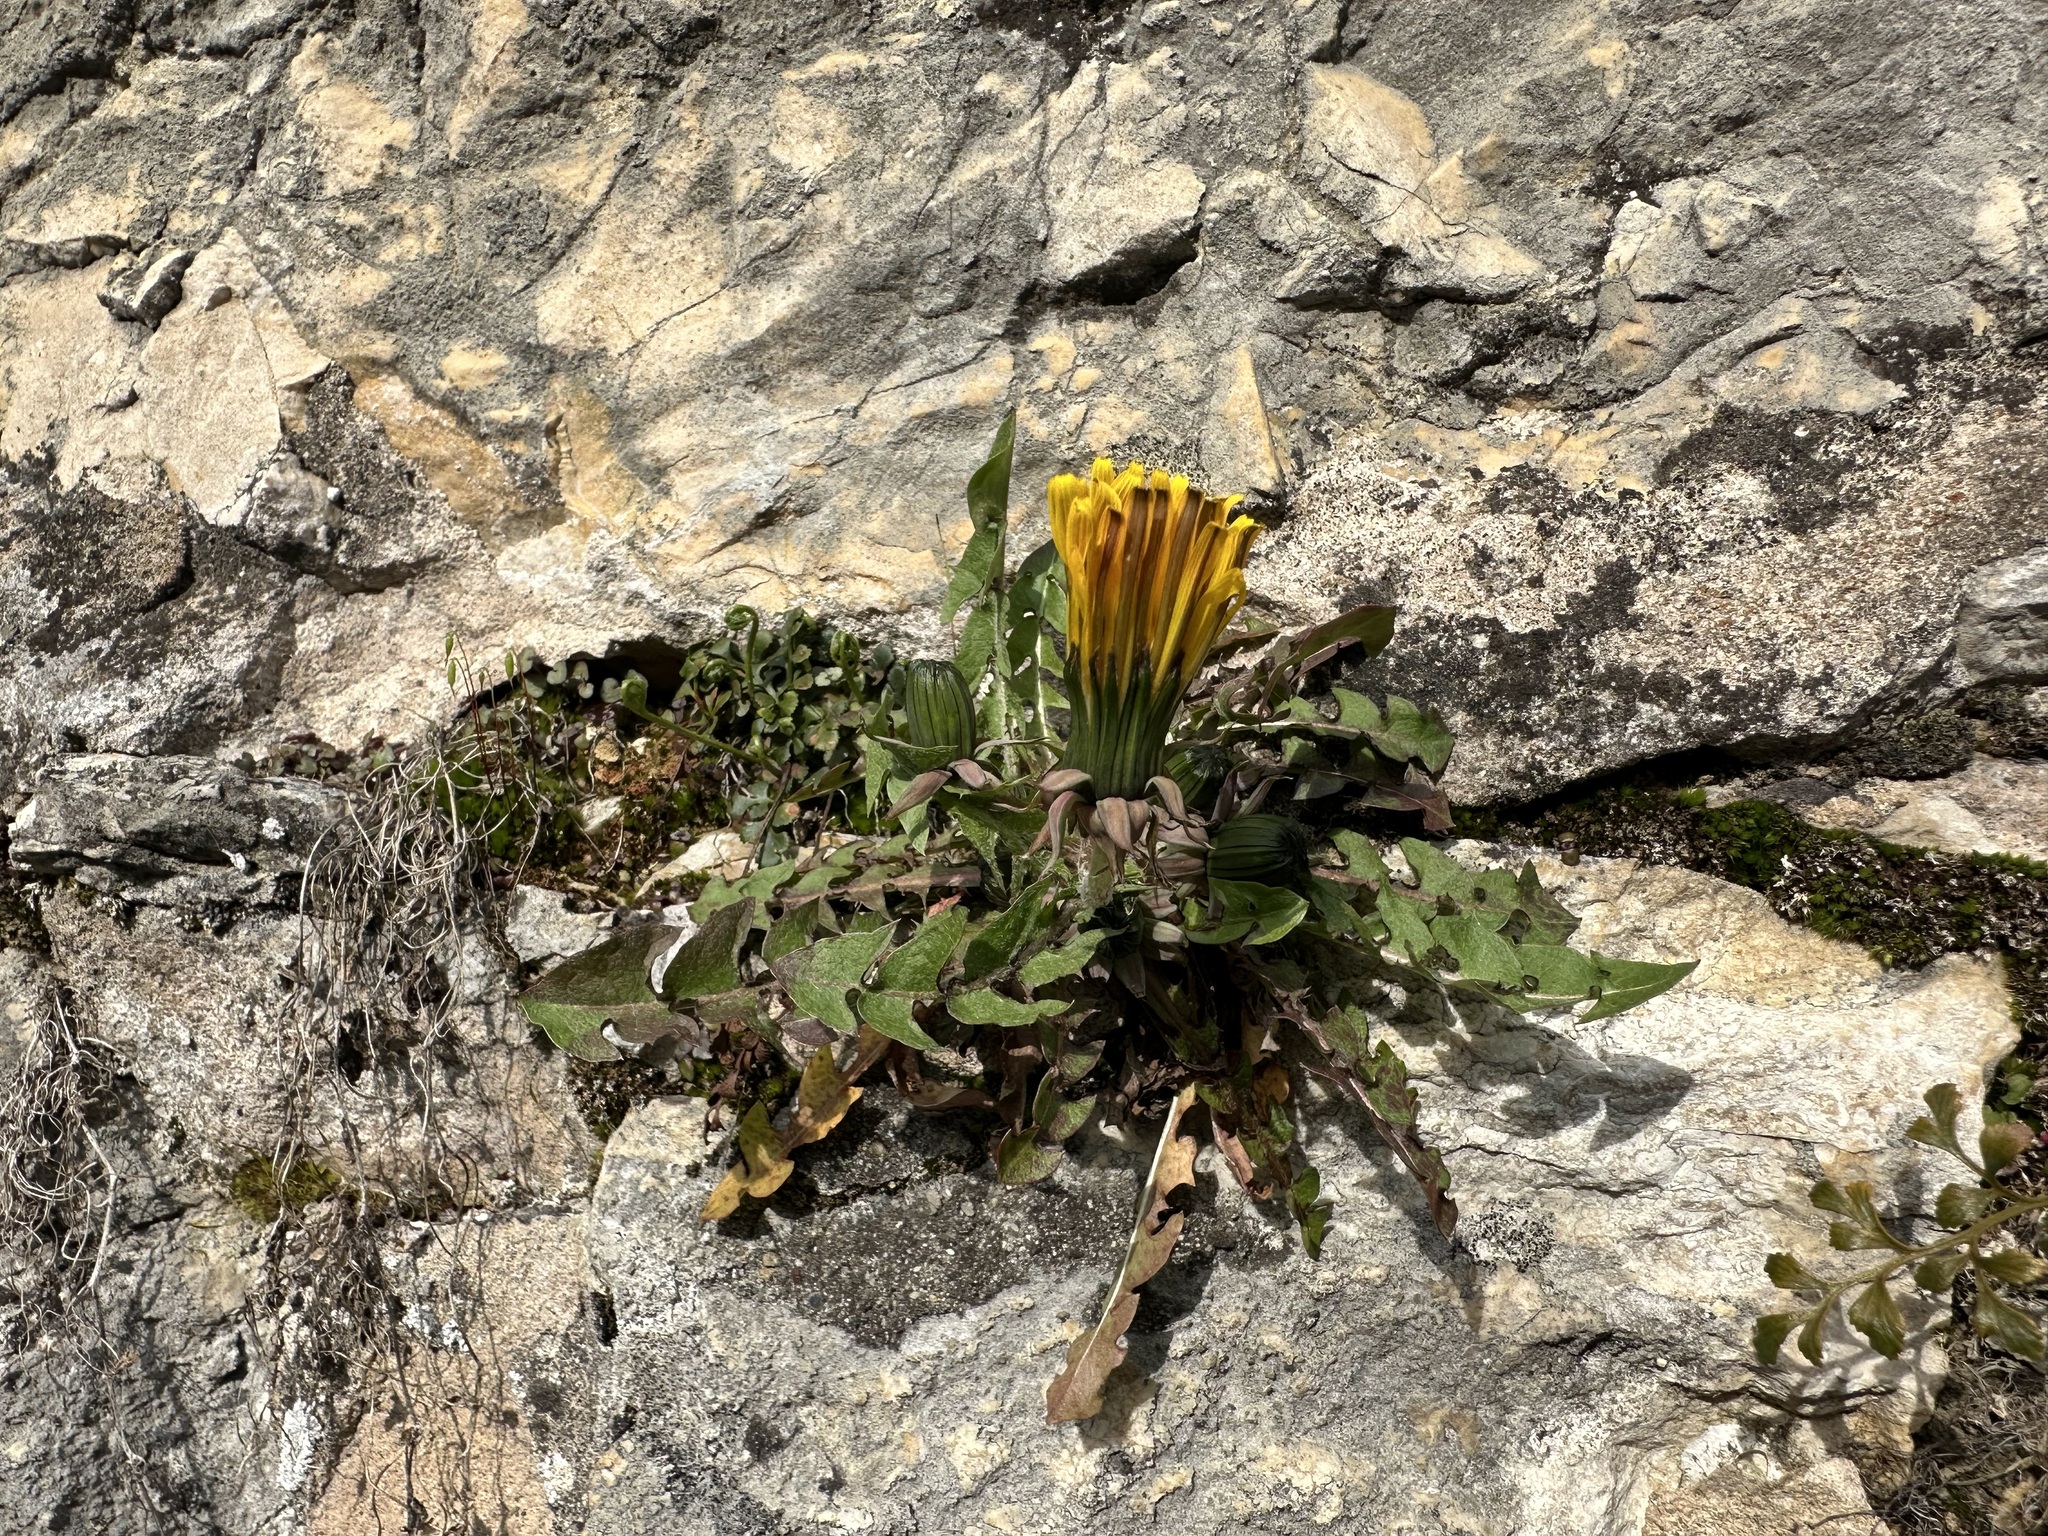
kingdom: Plantae
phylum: Tracheophyta
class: Magnoliopsida
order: Asterales
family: Asteraceae
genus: Taraxacum
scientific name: Taraxacum officinale
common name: Common dandelion
